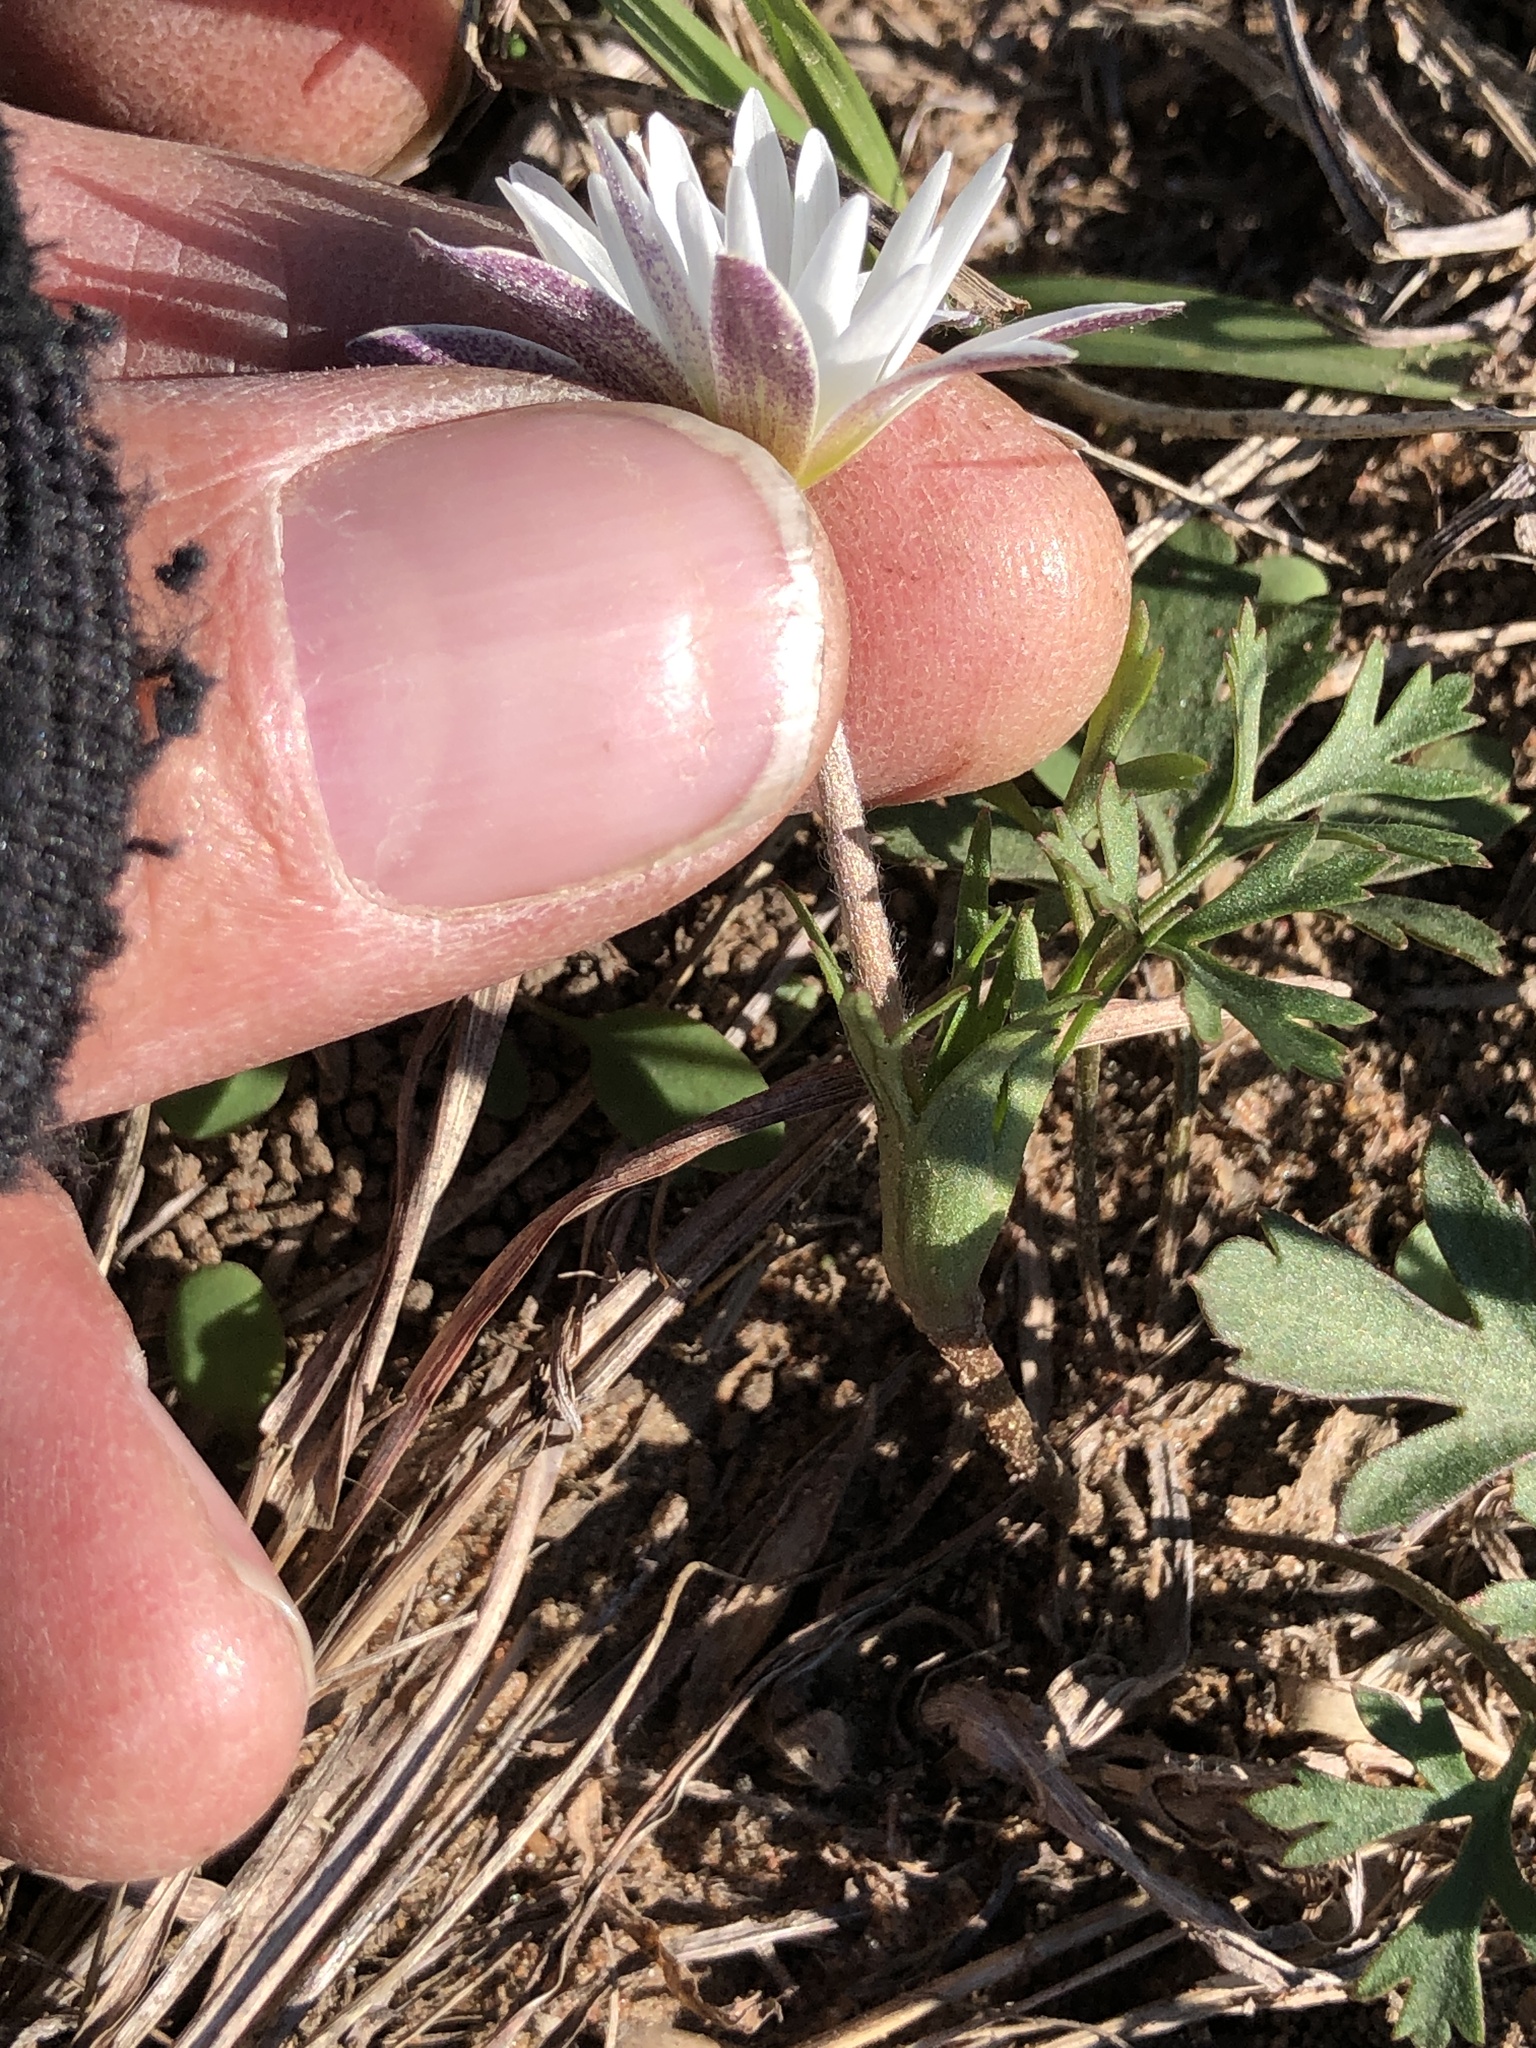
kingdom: Plantae
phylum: Tracheophyta
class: Magnoliopsida
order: Ranunculales
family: Ranunculaceae
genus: Anemone
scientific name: Anemone caroliniana
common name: Carolina anemone
